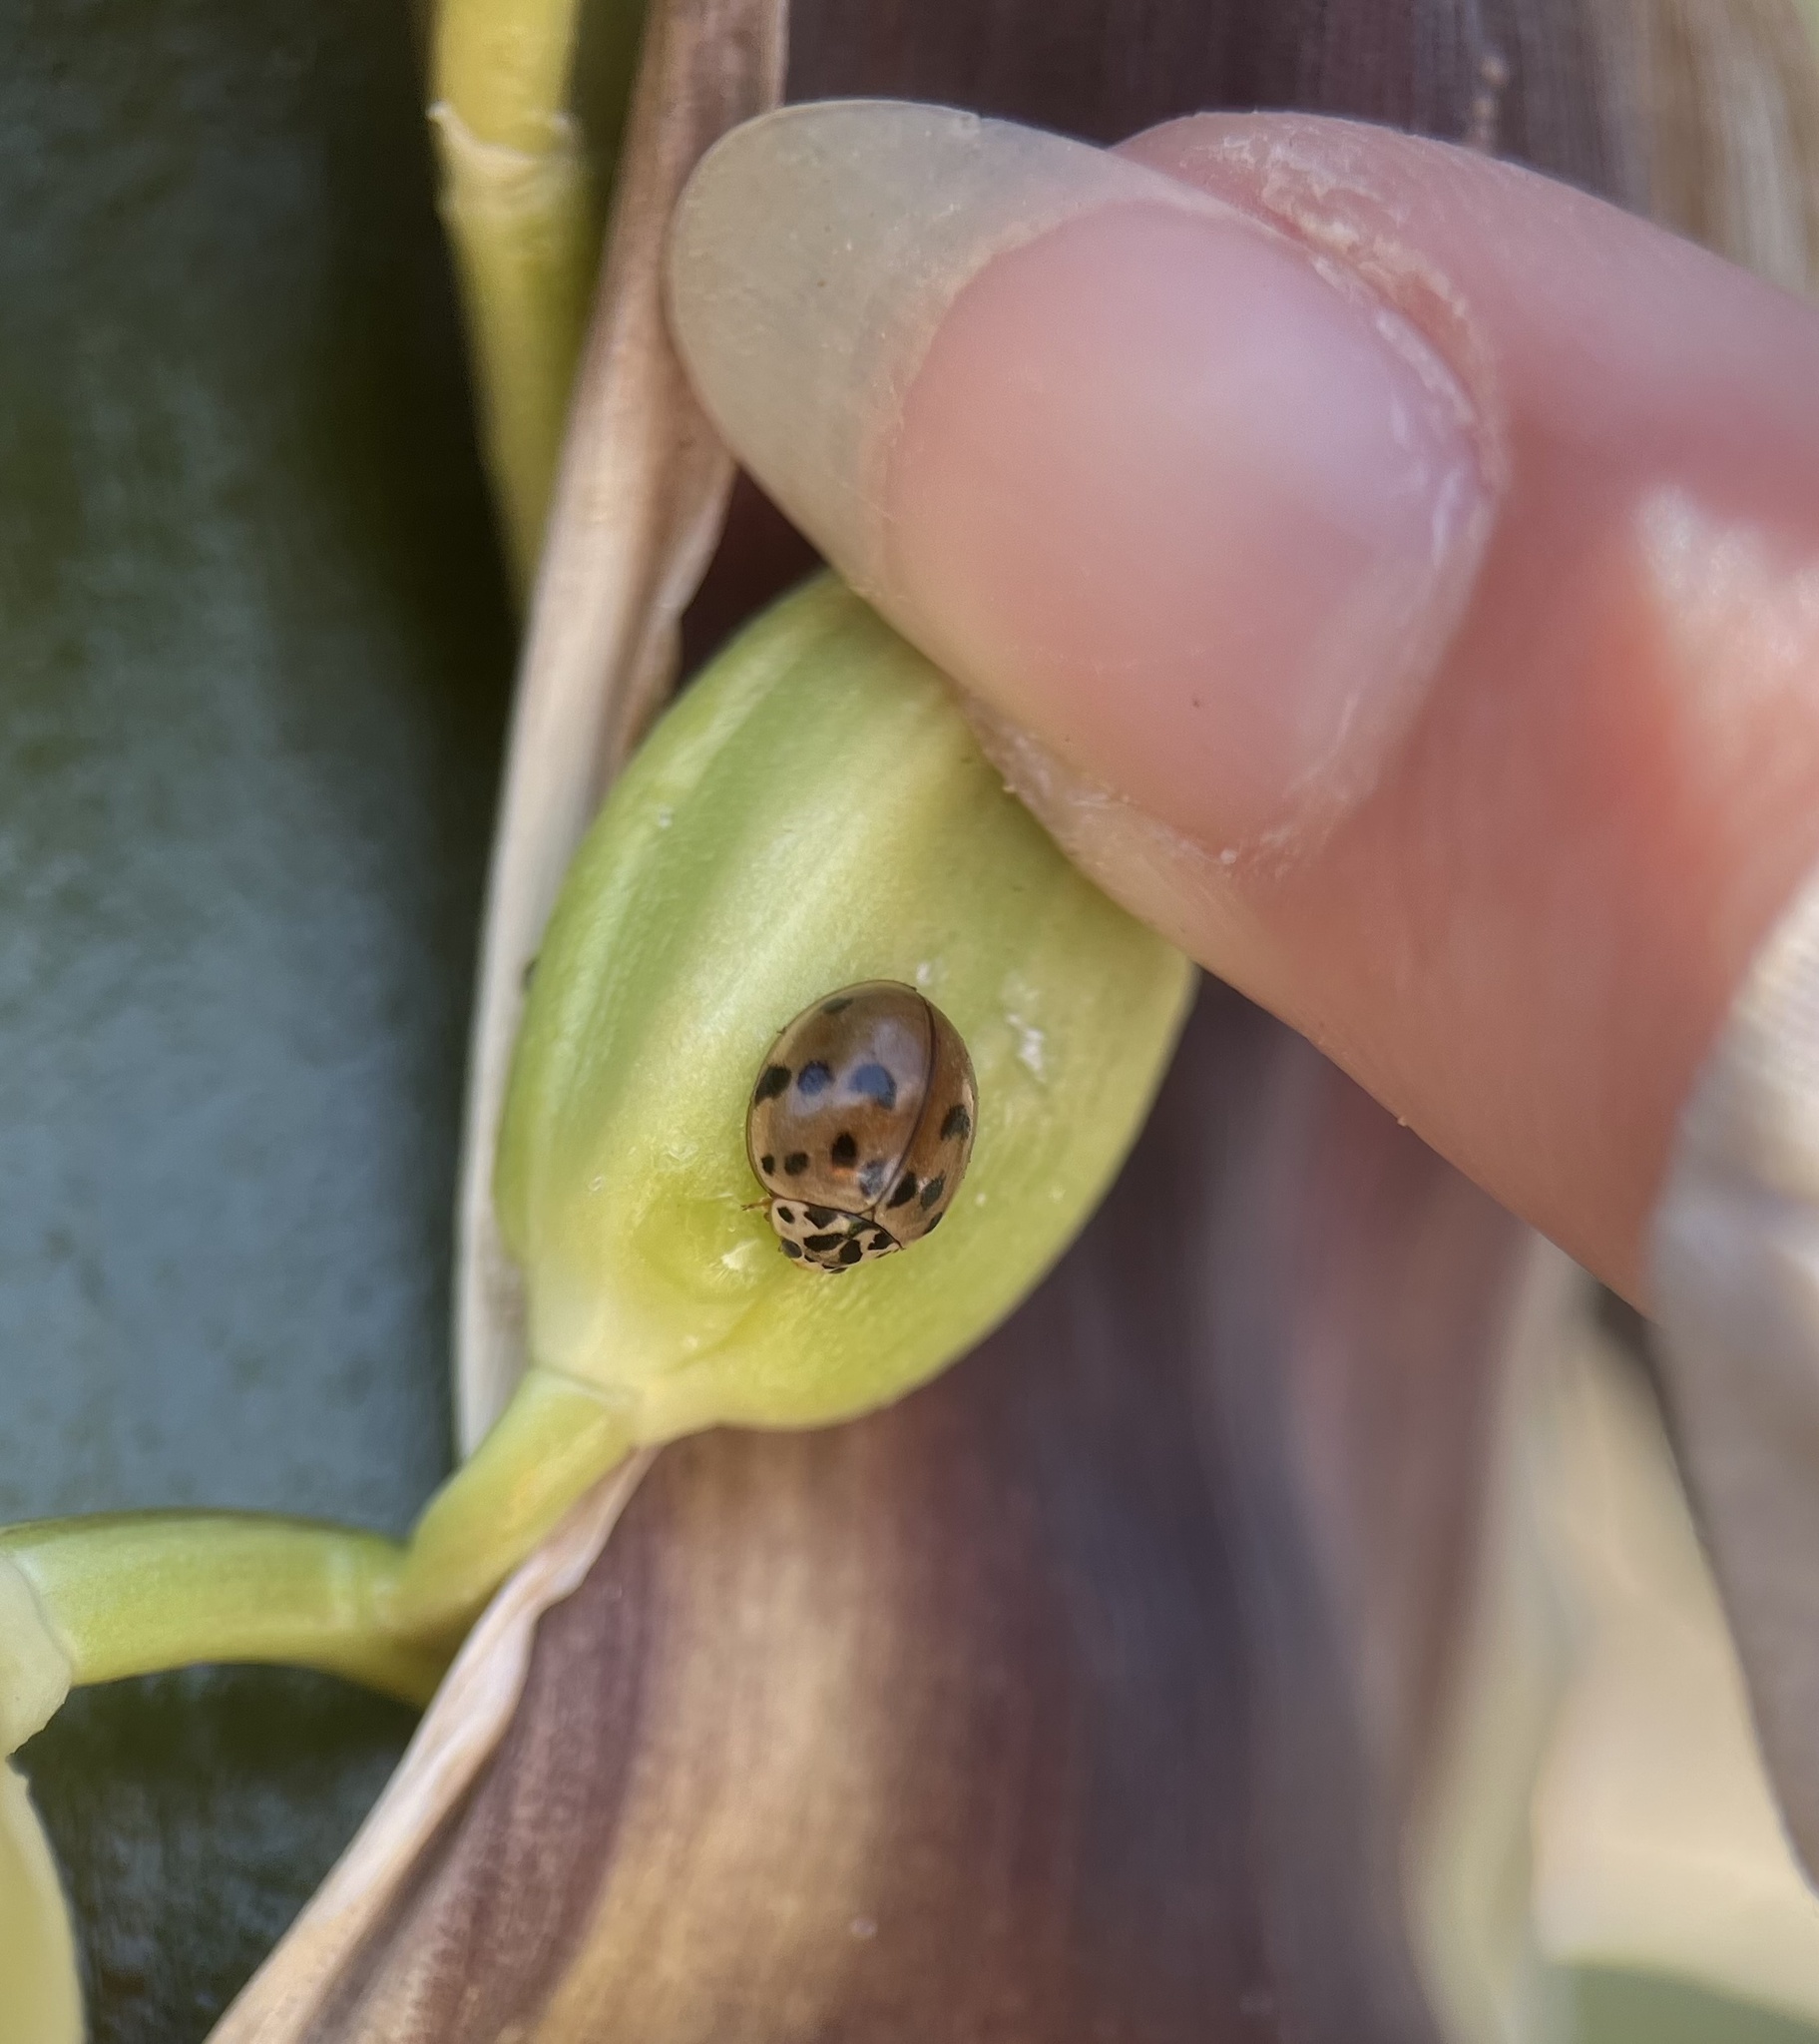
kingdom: Animalia
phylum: Arthropoda
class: Insecta
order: Coleoptera
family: Coccinellidae
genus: Olla
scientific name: Olla v-nigrum
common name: Ashy gray lady beetle
